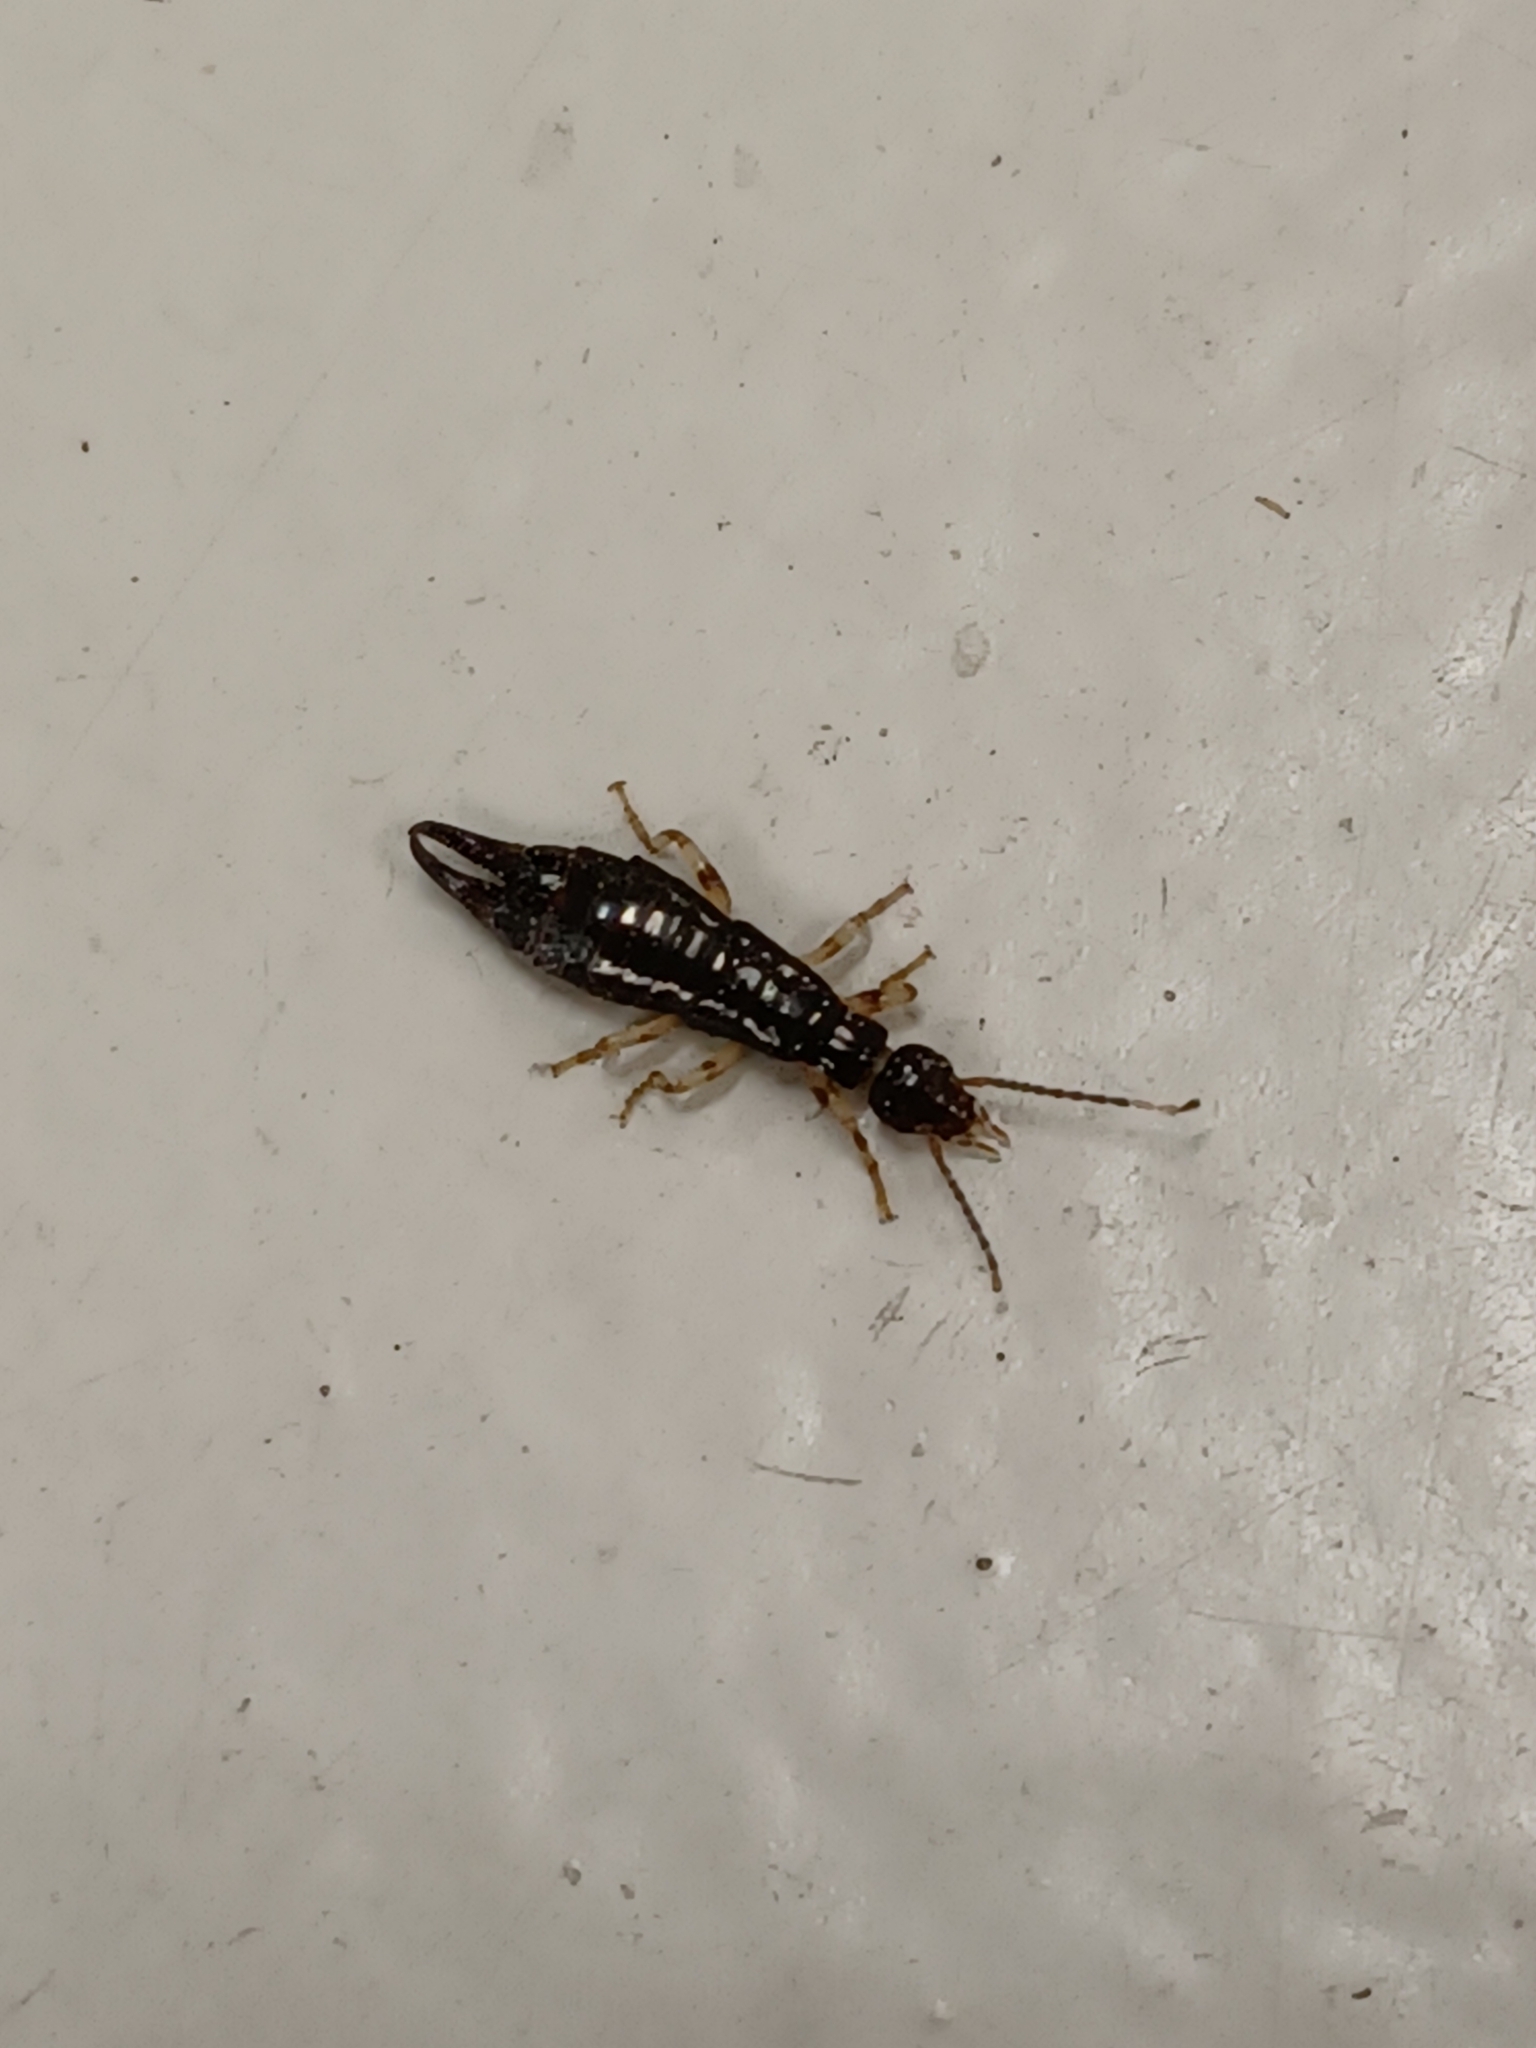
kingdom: Animalia
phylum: Arthropoda
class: Insecta
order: Dermaptera
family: Anisolabididae
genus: Euborellia
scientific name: Euborellia annulipes
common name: Ringlegged earwig
